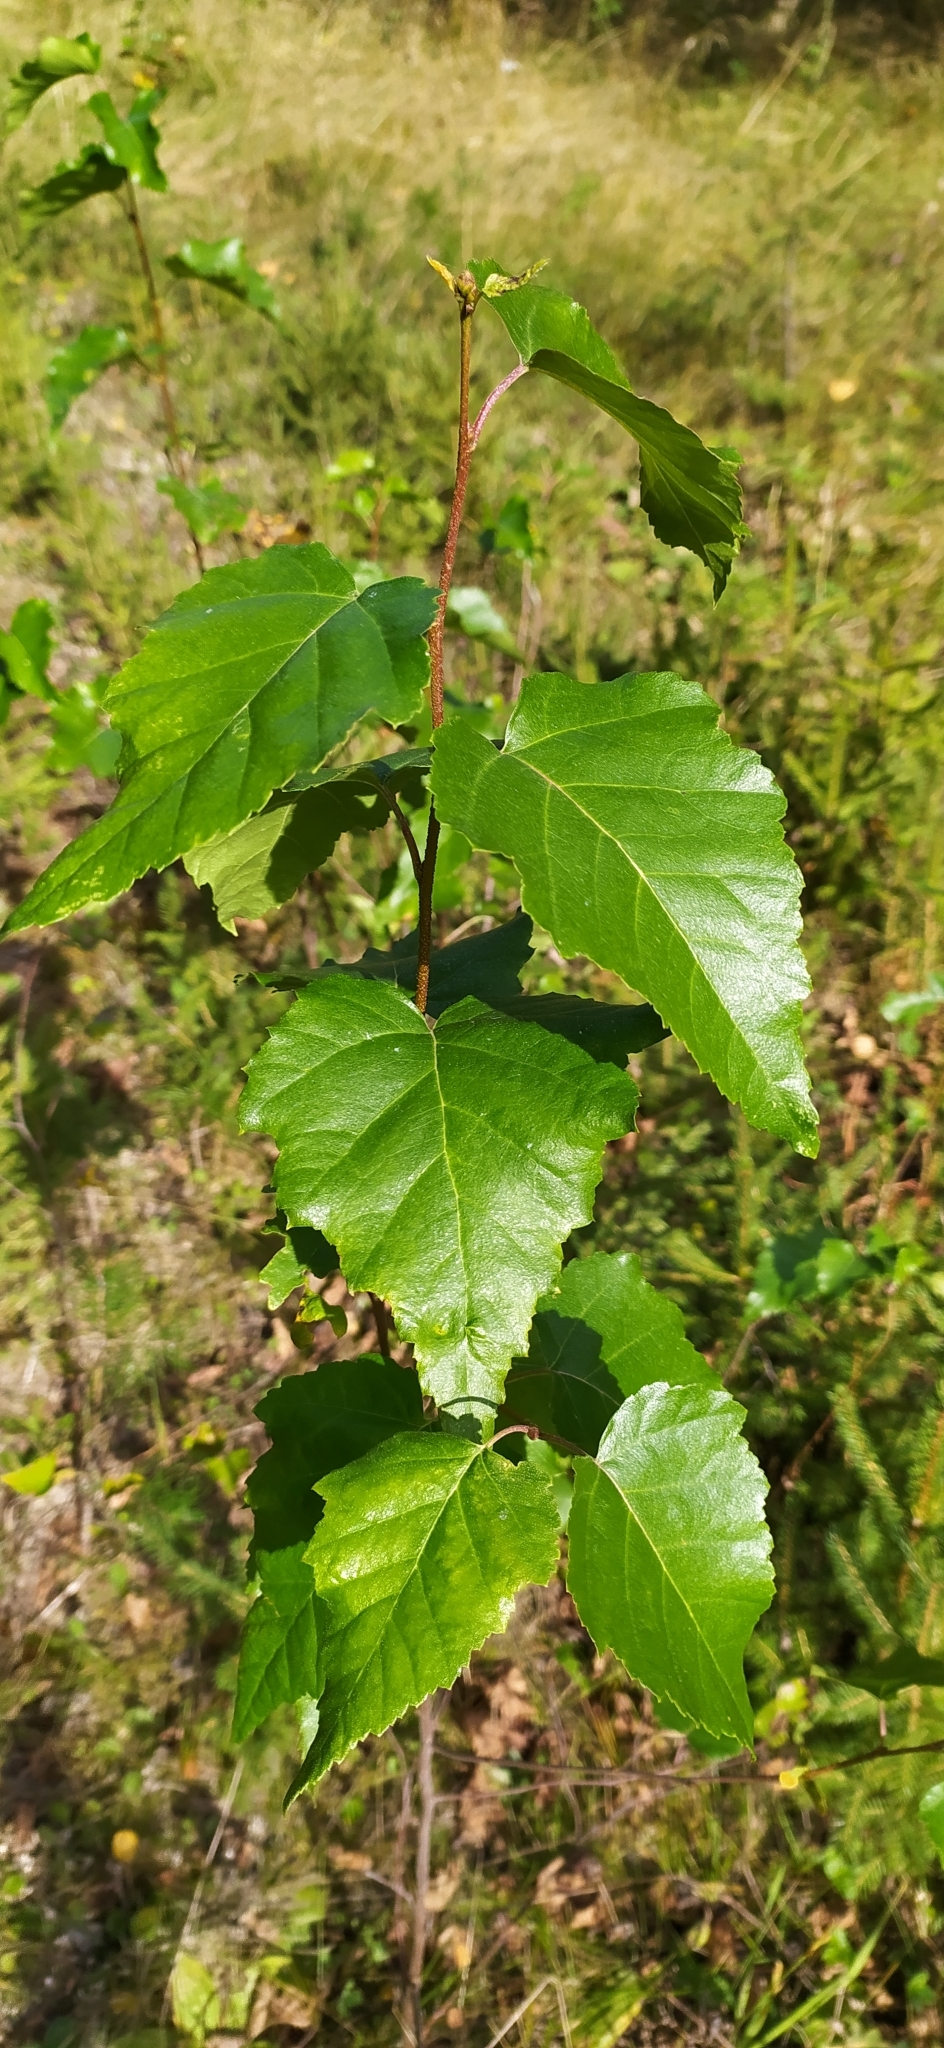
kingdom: Plantae
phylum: Tracheophyta
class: Magnoliopsida
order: Fagales
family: Betulaceae
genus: Betula
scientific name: Betula pendula
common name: Silver birch
